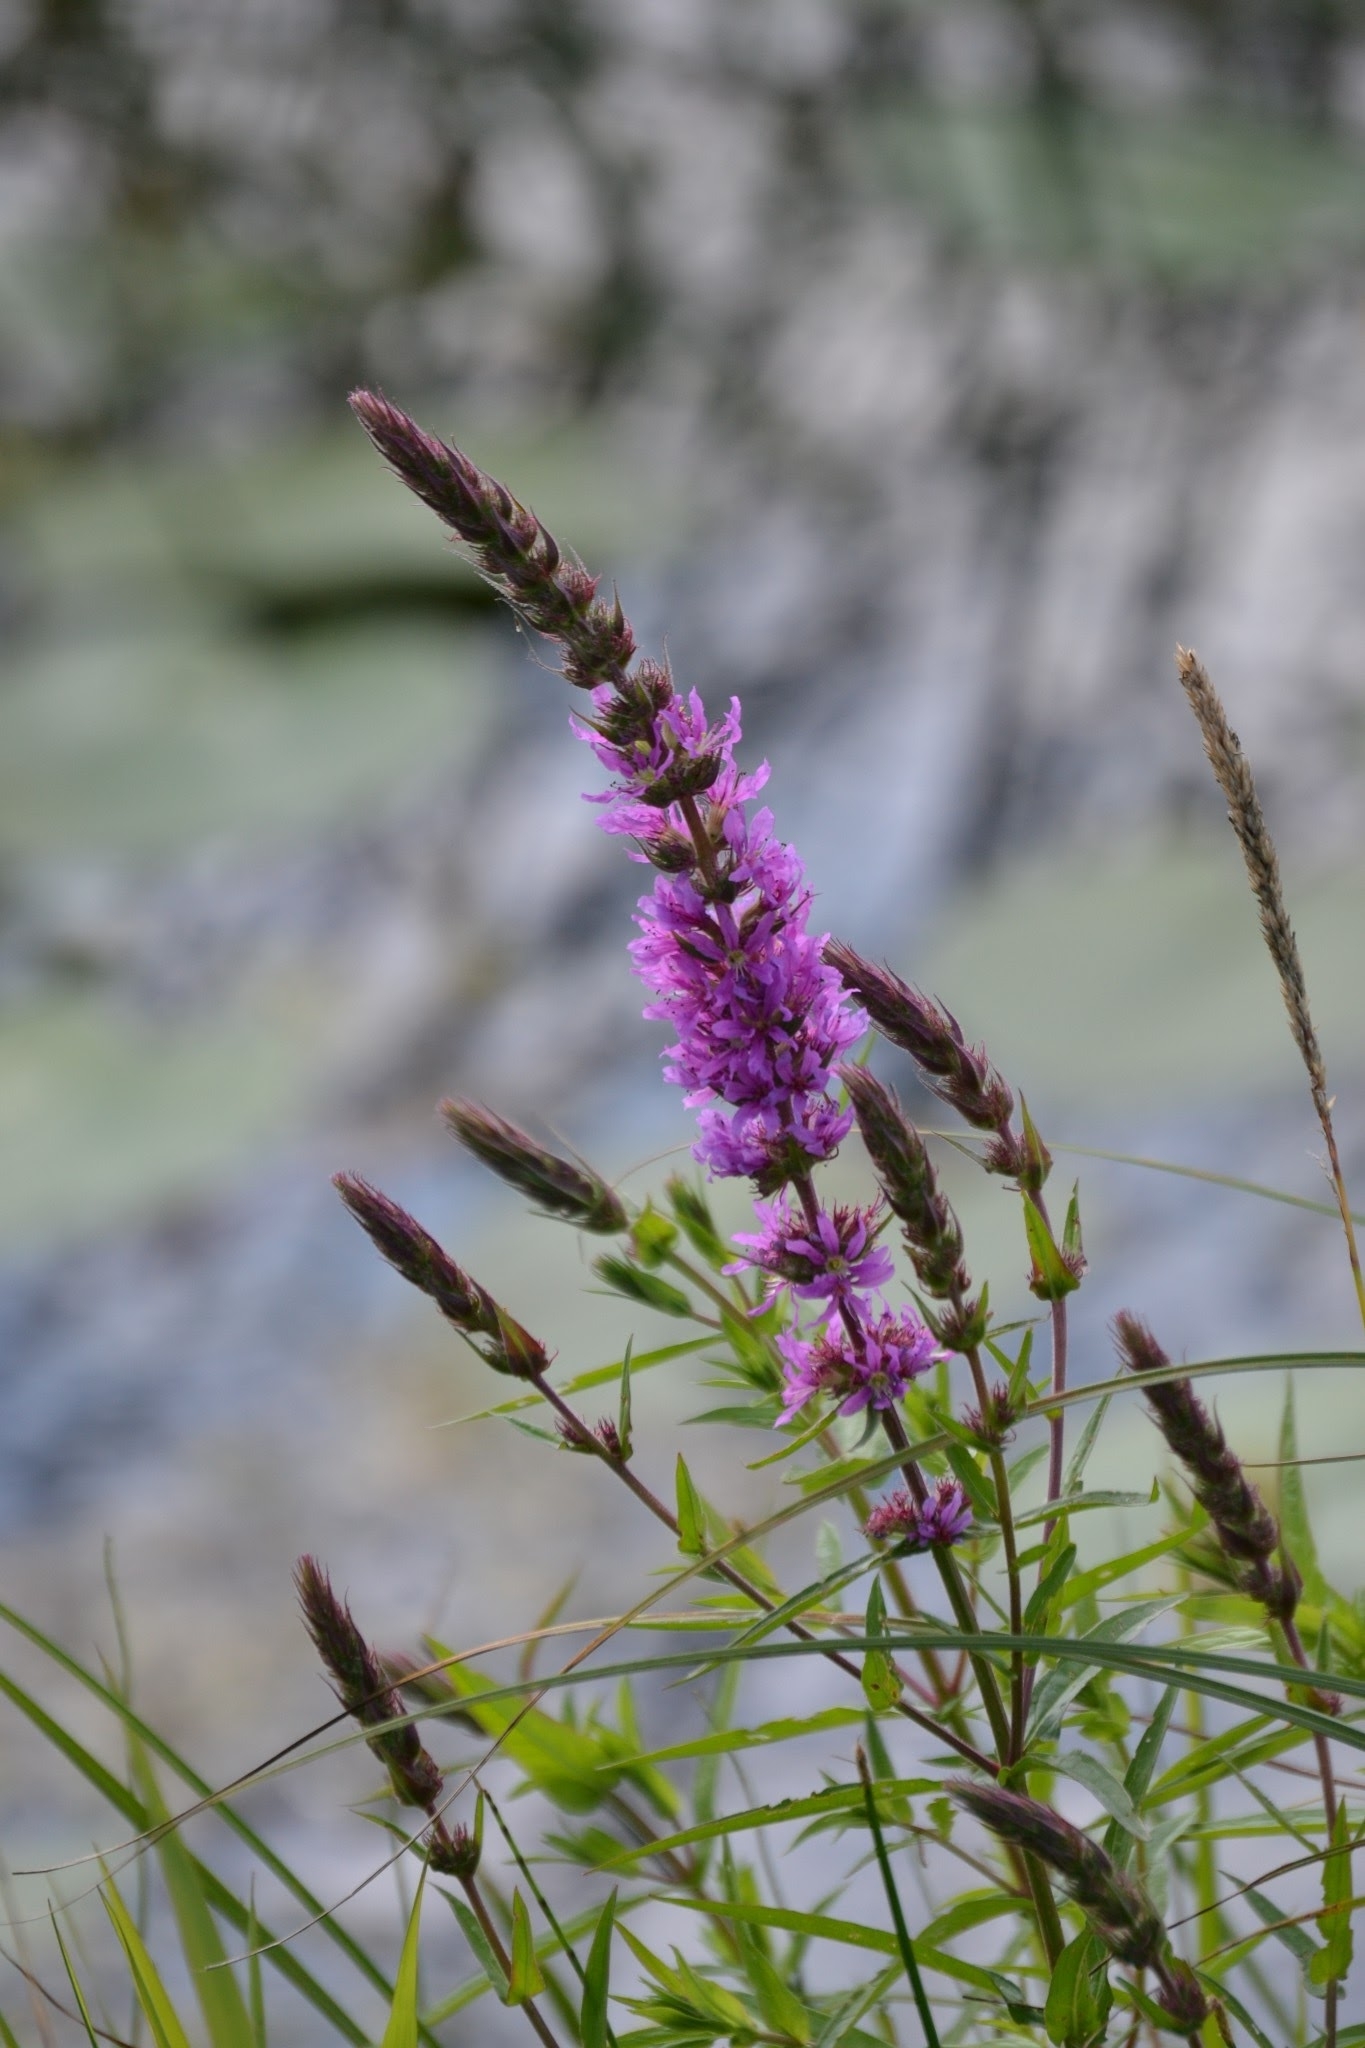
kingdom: Plantae
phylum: Tracheophyta
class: Magnoliopsida
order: Myrtales
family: Lythraceae
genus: Lythrum
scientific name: Lythrum salicaria
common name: Purple loosestrife
